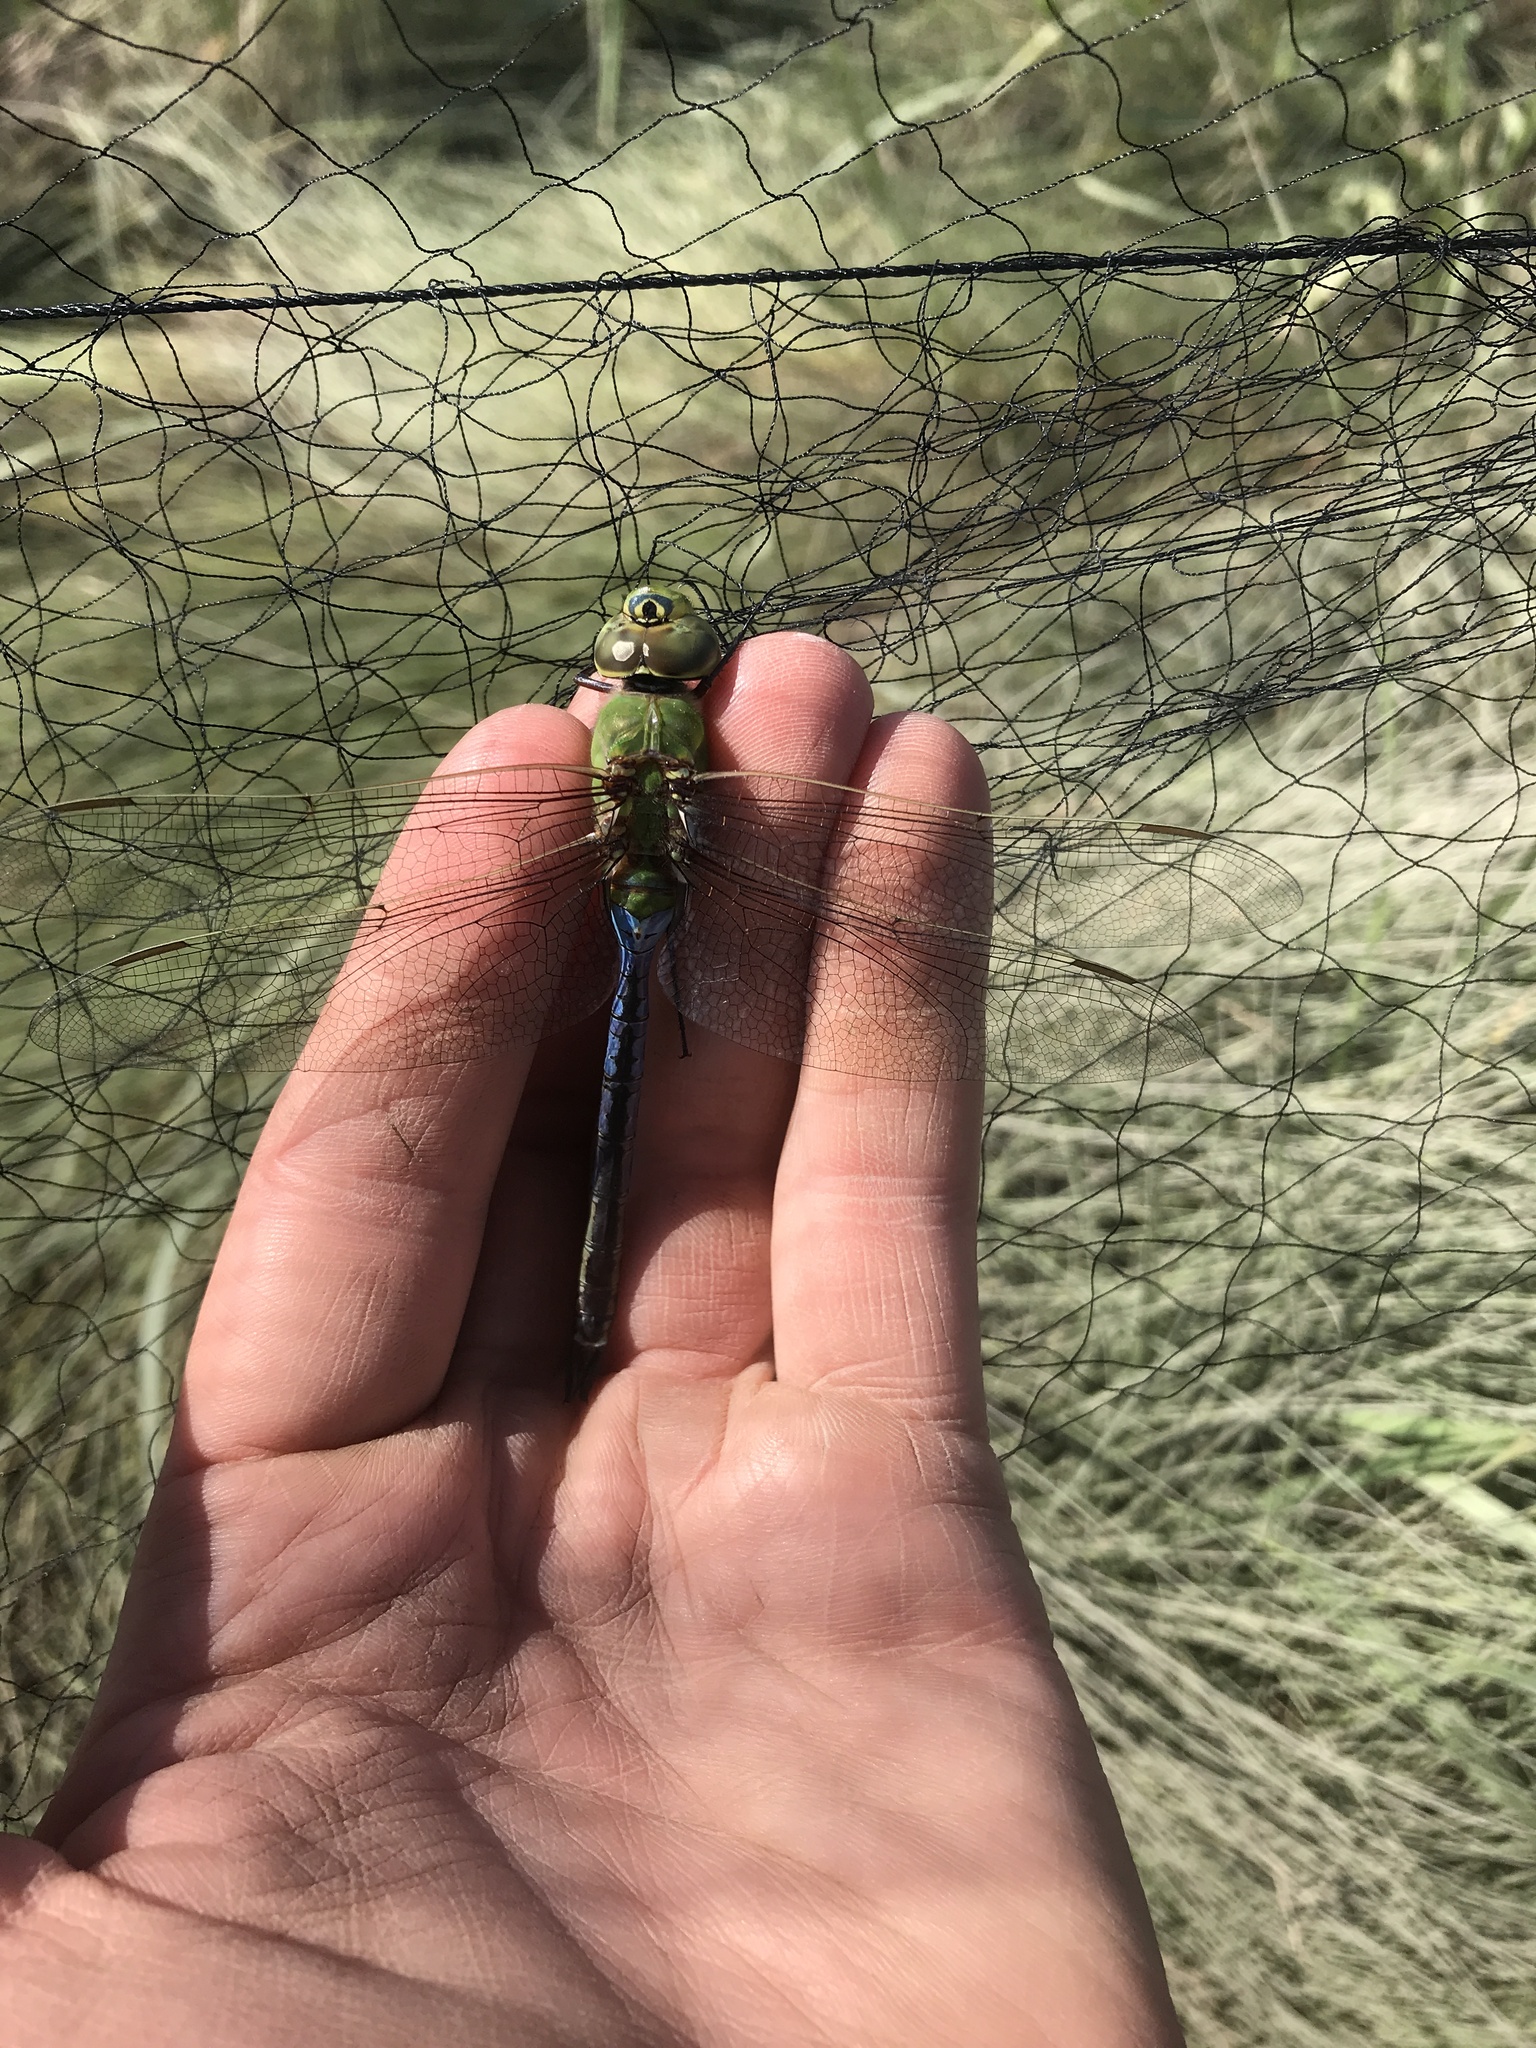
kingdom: Animalia
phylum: Arthropoda
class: Insecta
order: Odonata
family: Aeshnidae
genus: Anax
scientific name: Anax junius
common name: Common green darner
